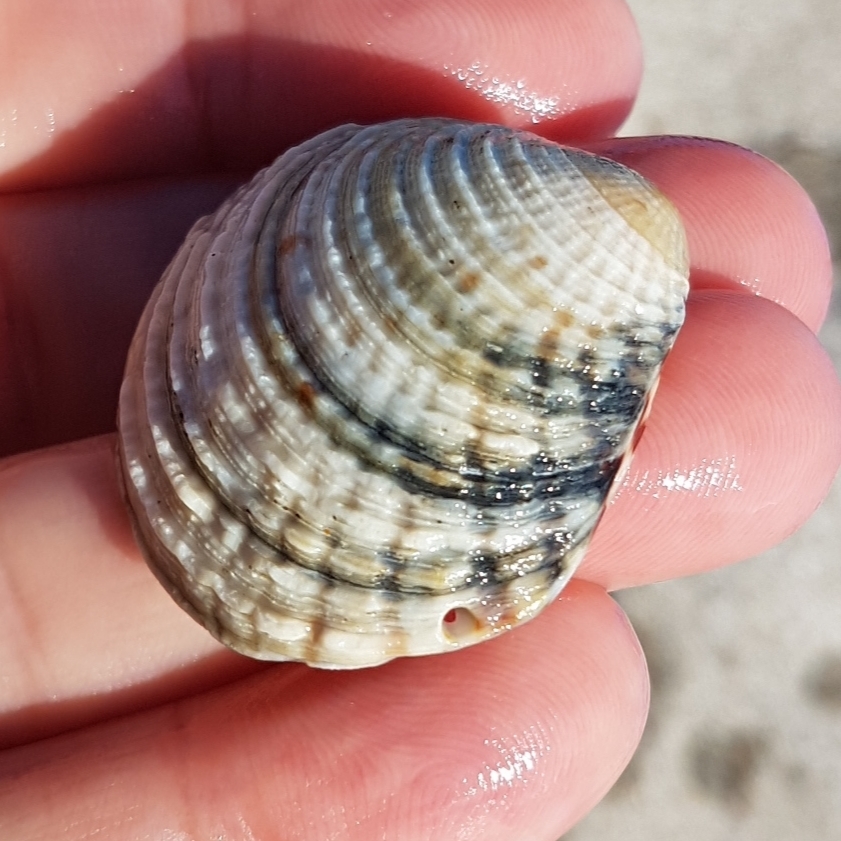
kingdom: Animalia
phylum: Mollusca
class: Bivalvia
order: Venerida
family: Veneridae
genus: Venus
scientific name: Venus verrucosa
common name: Warty venus
